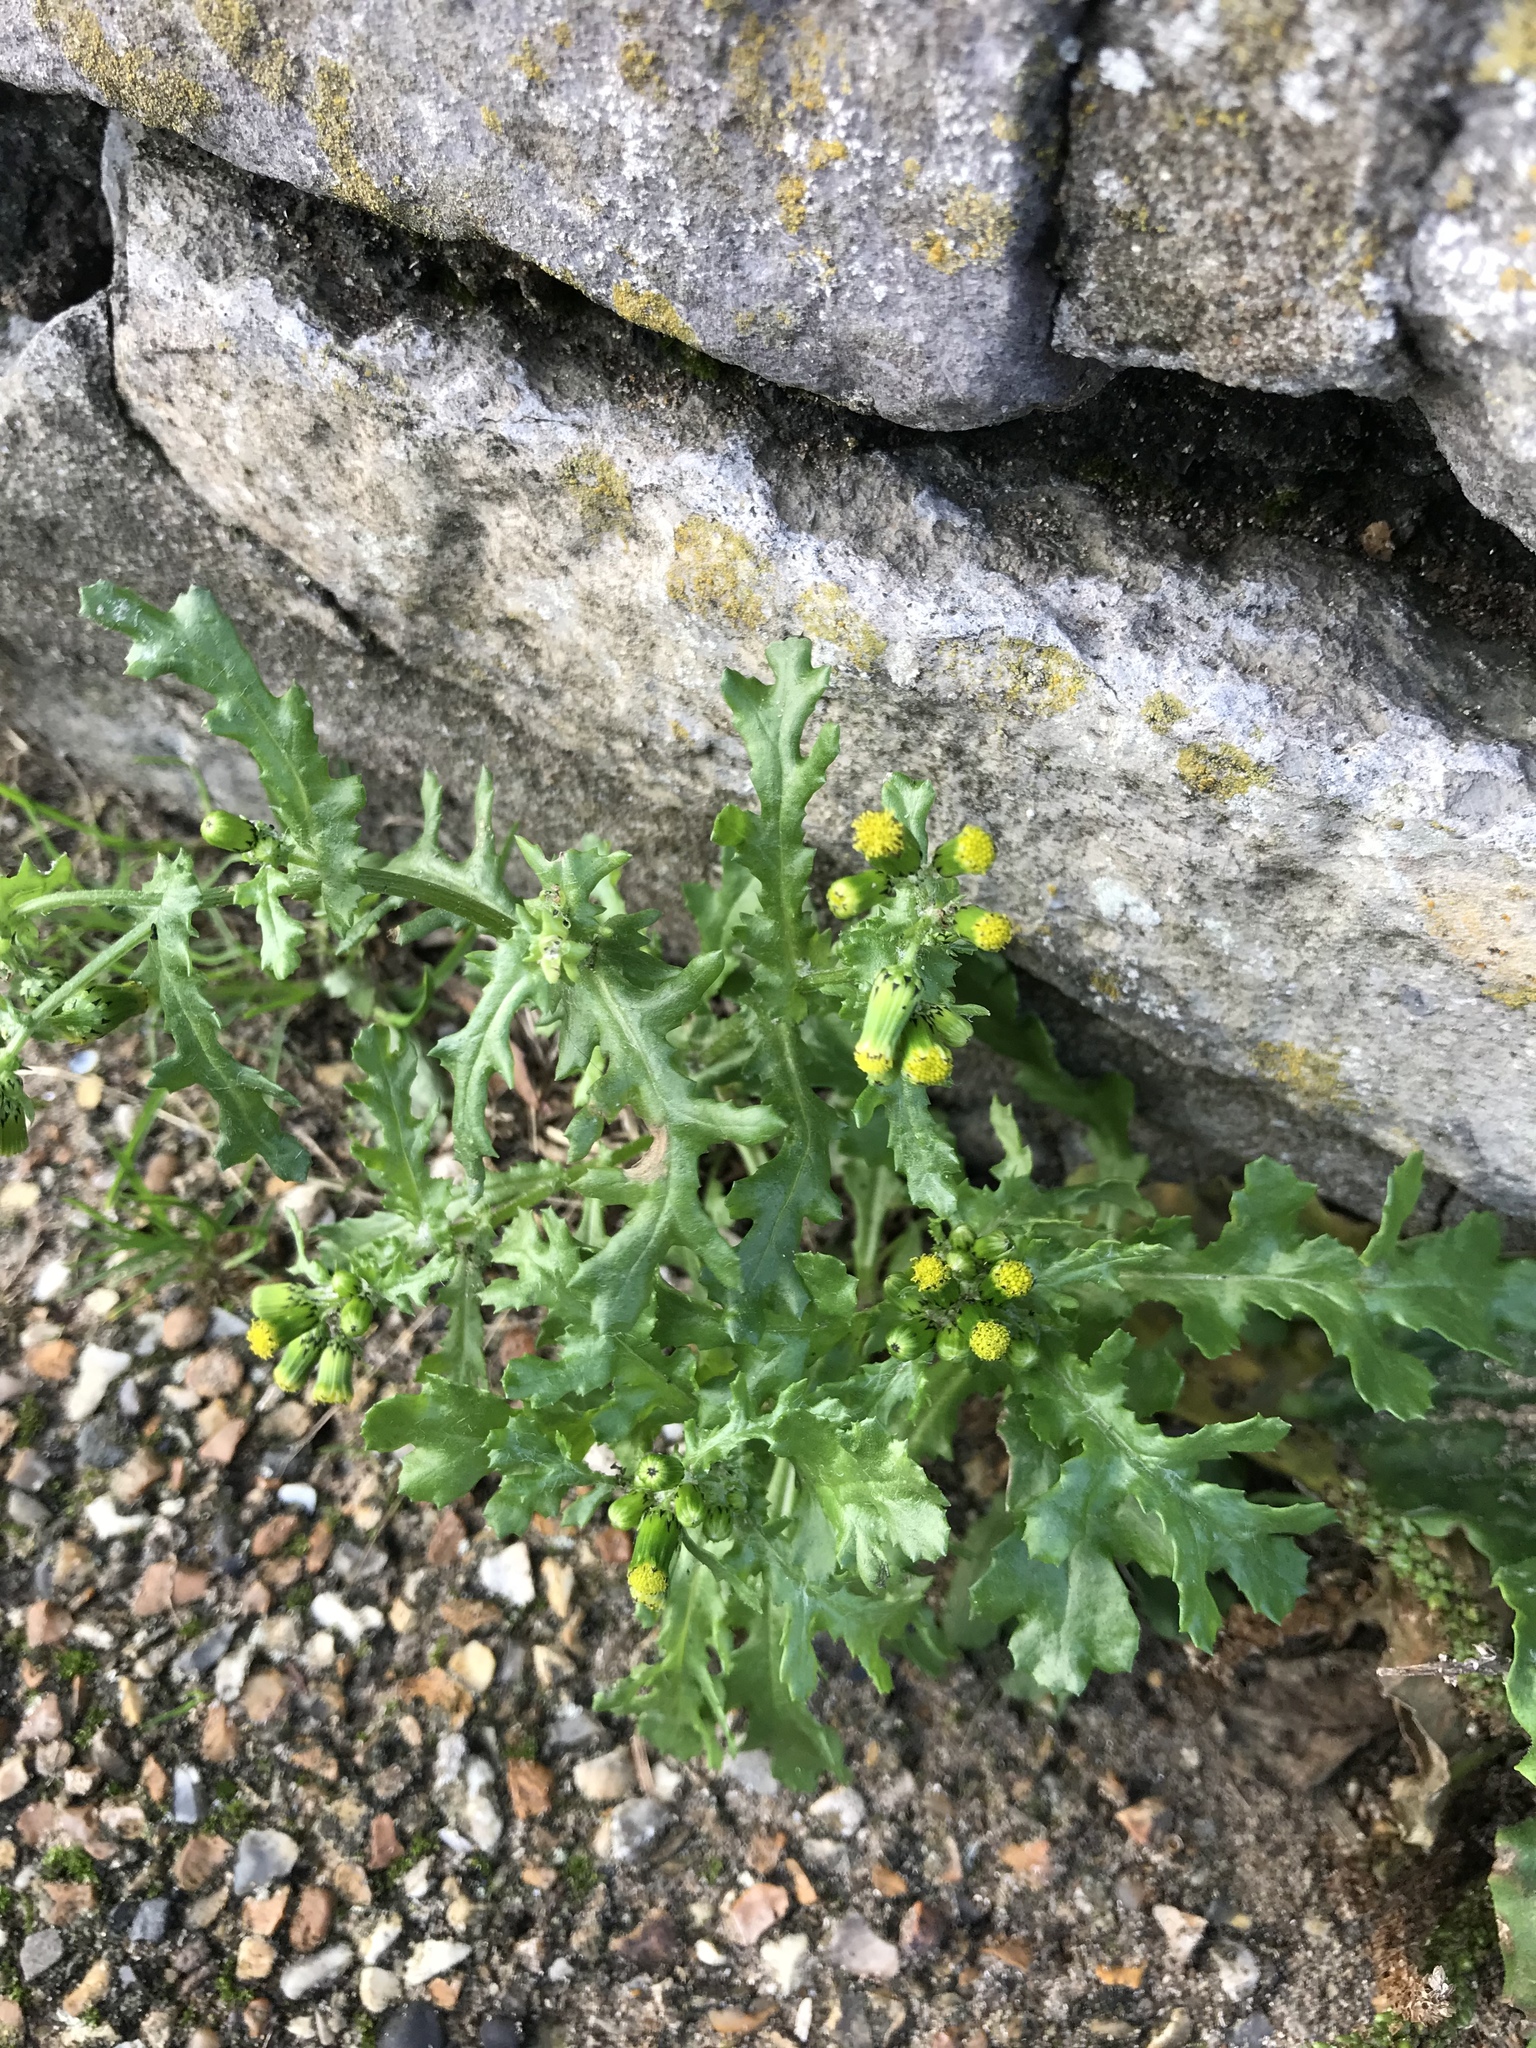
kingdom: Plantae
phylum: Tracheophyta
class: Magnoliopsida
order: Asterales
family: Asteraceae
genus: Senecio
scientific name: Senecio vulgaris
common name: Old-man-in-the-spring
